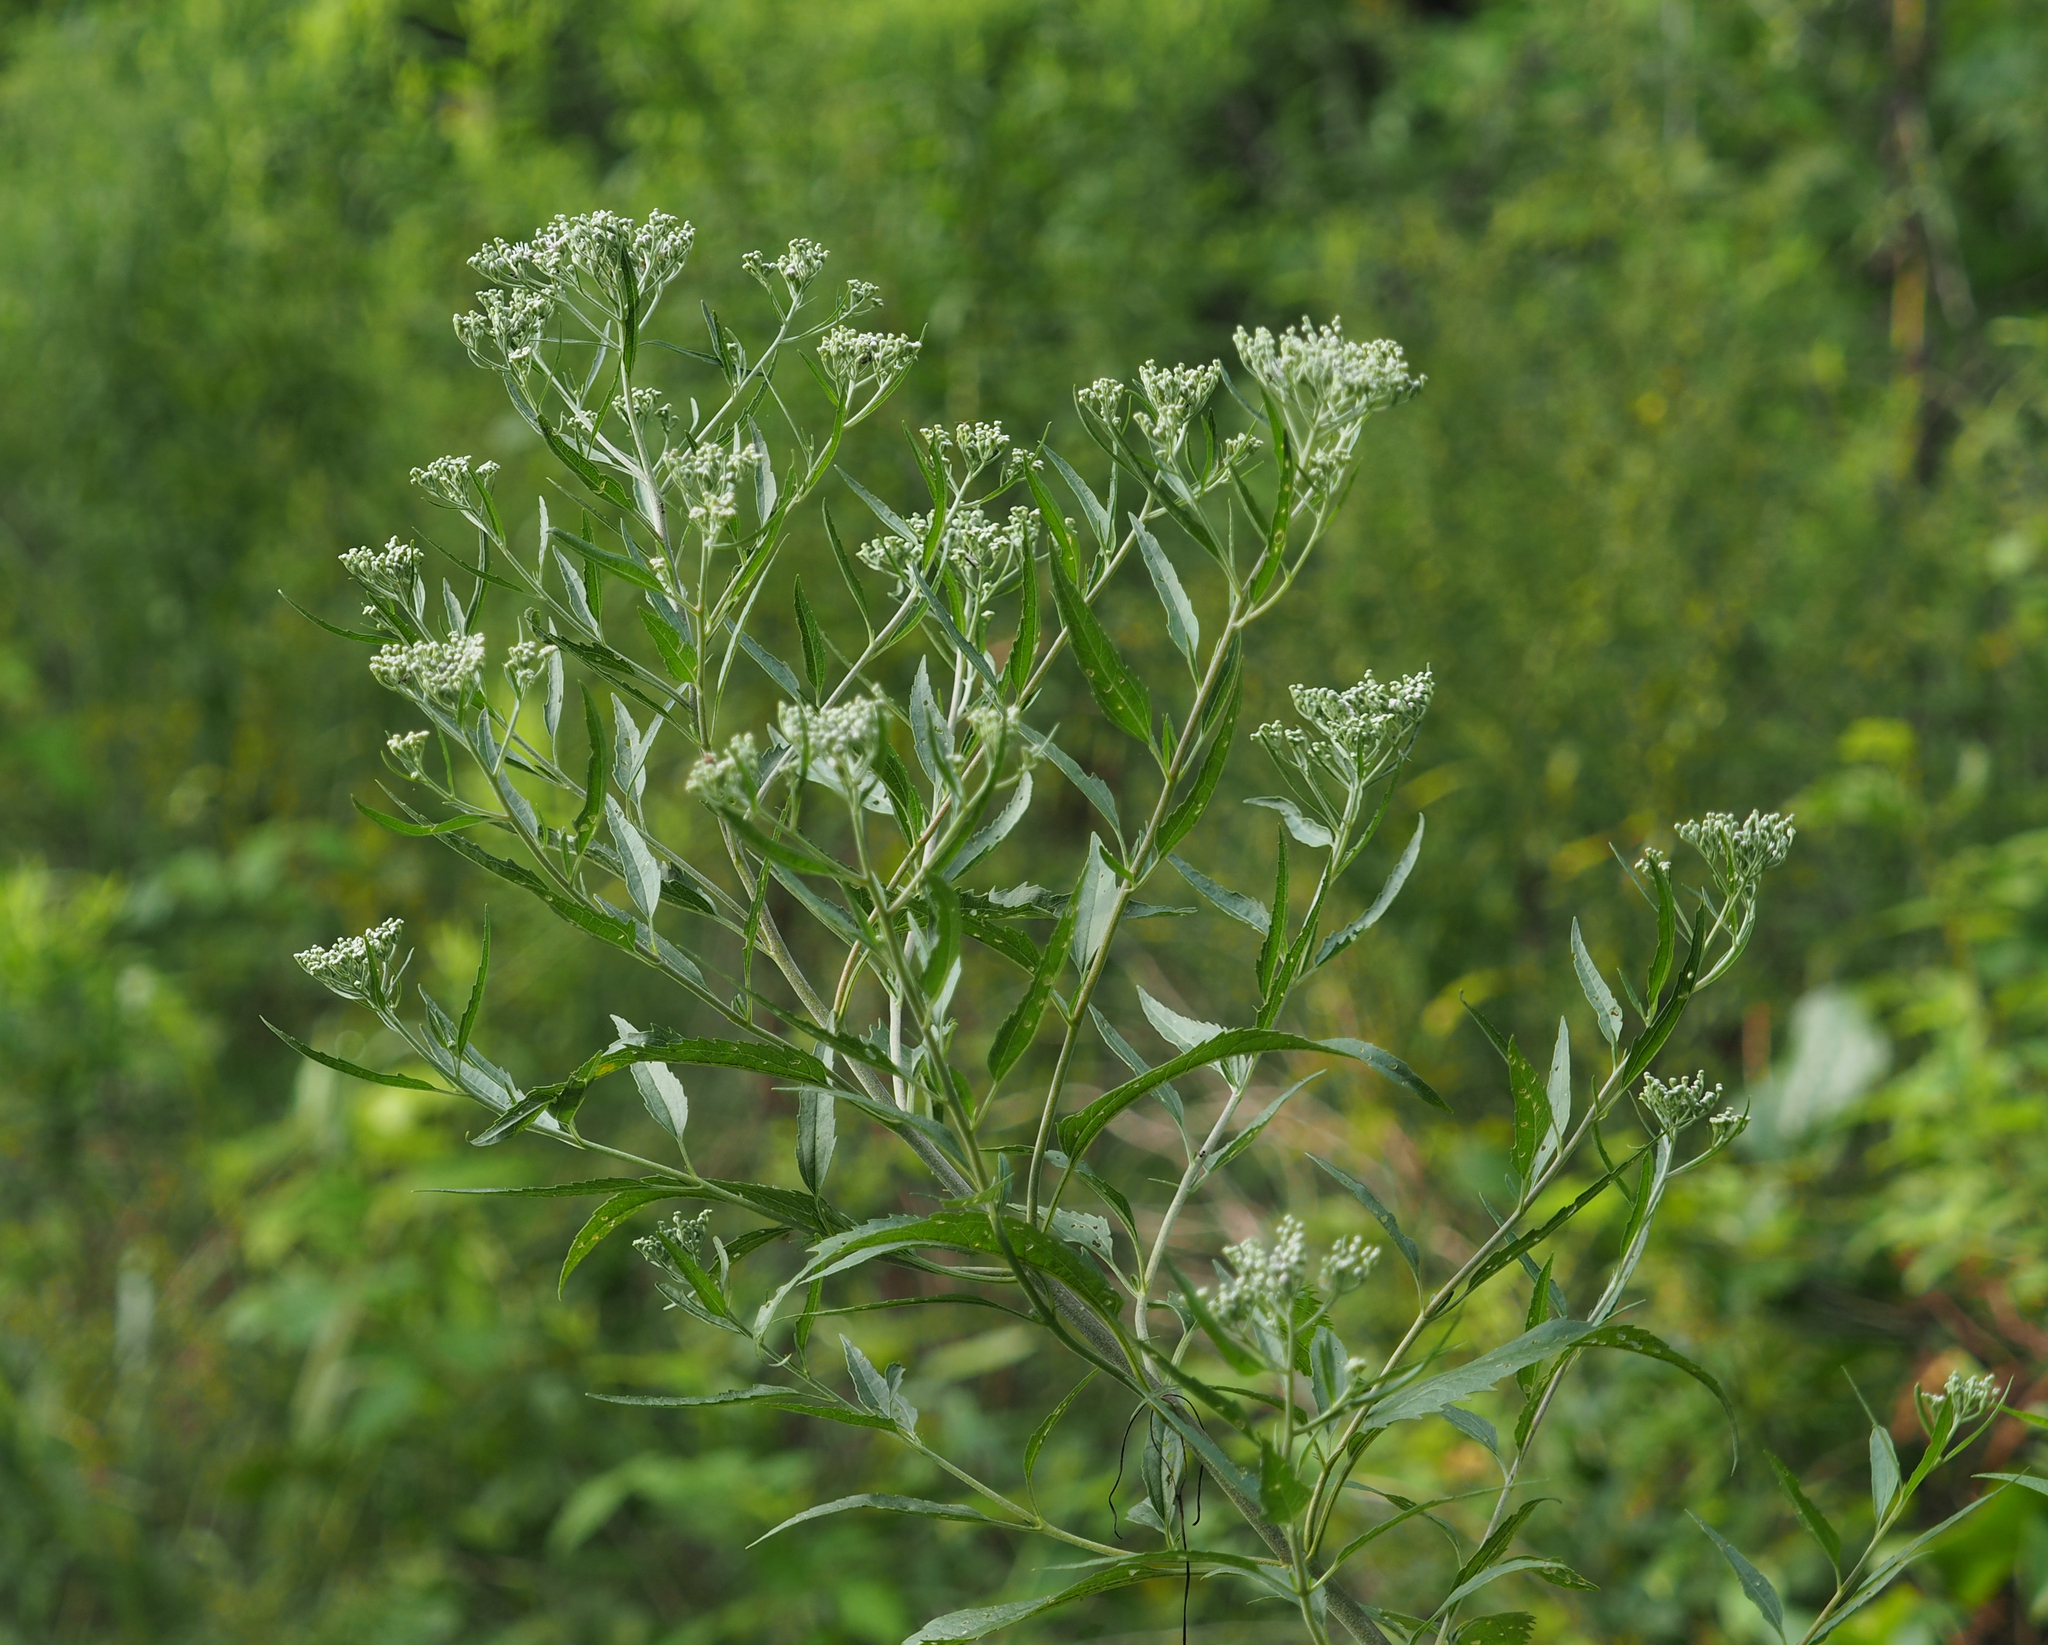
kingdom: Plantae
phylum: Tracheophyta
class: Magnoliopsida
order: Asterales
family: Asteraceae
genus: Eupatorium
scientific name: Eupatorium serotinum
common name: Late boneset
